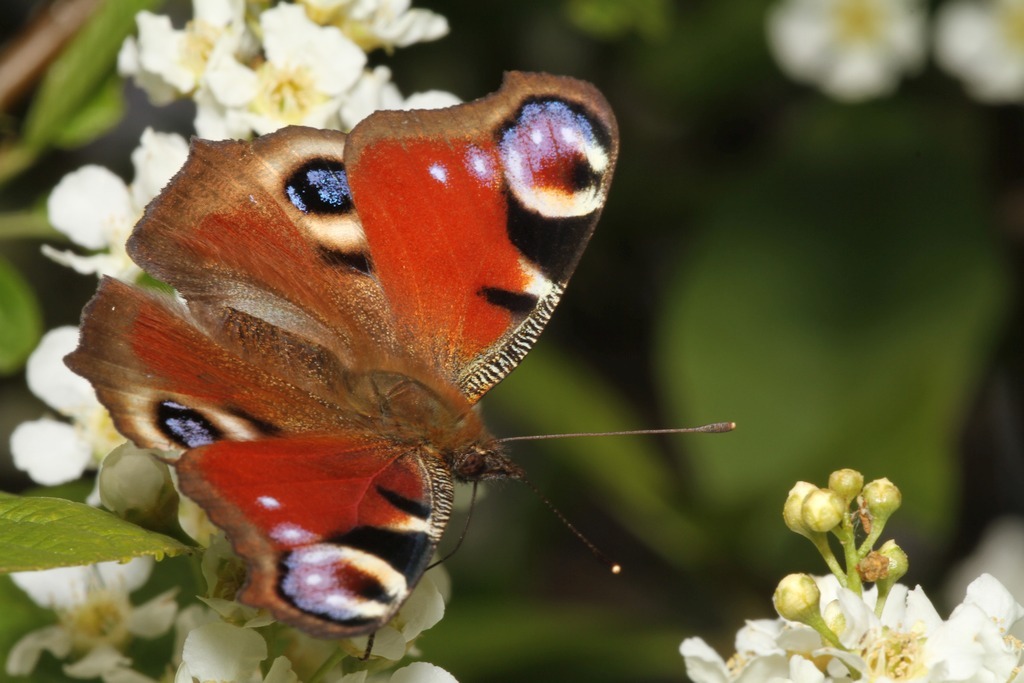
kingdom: Animalia
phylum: Arthropoda
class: Insecta
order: Lepidoptera
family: Nymphalidae
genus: Aglais
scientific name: Aglais io
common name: Peacock
